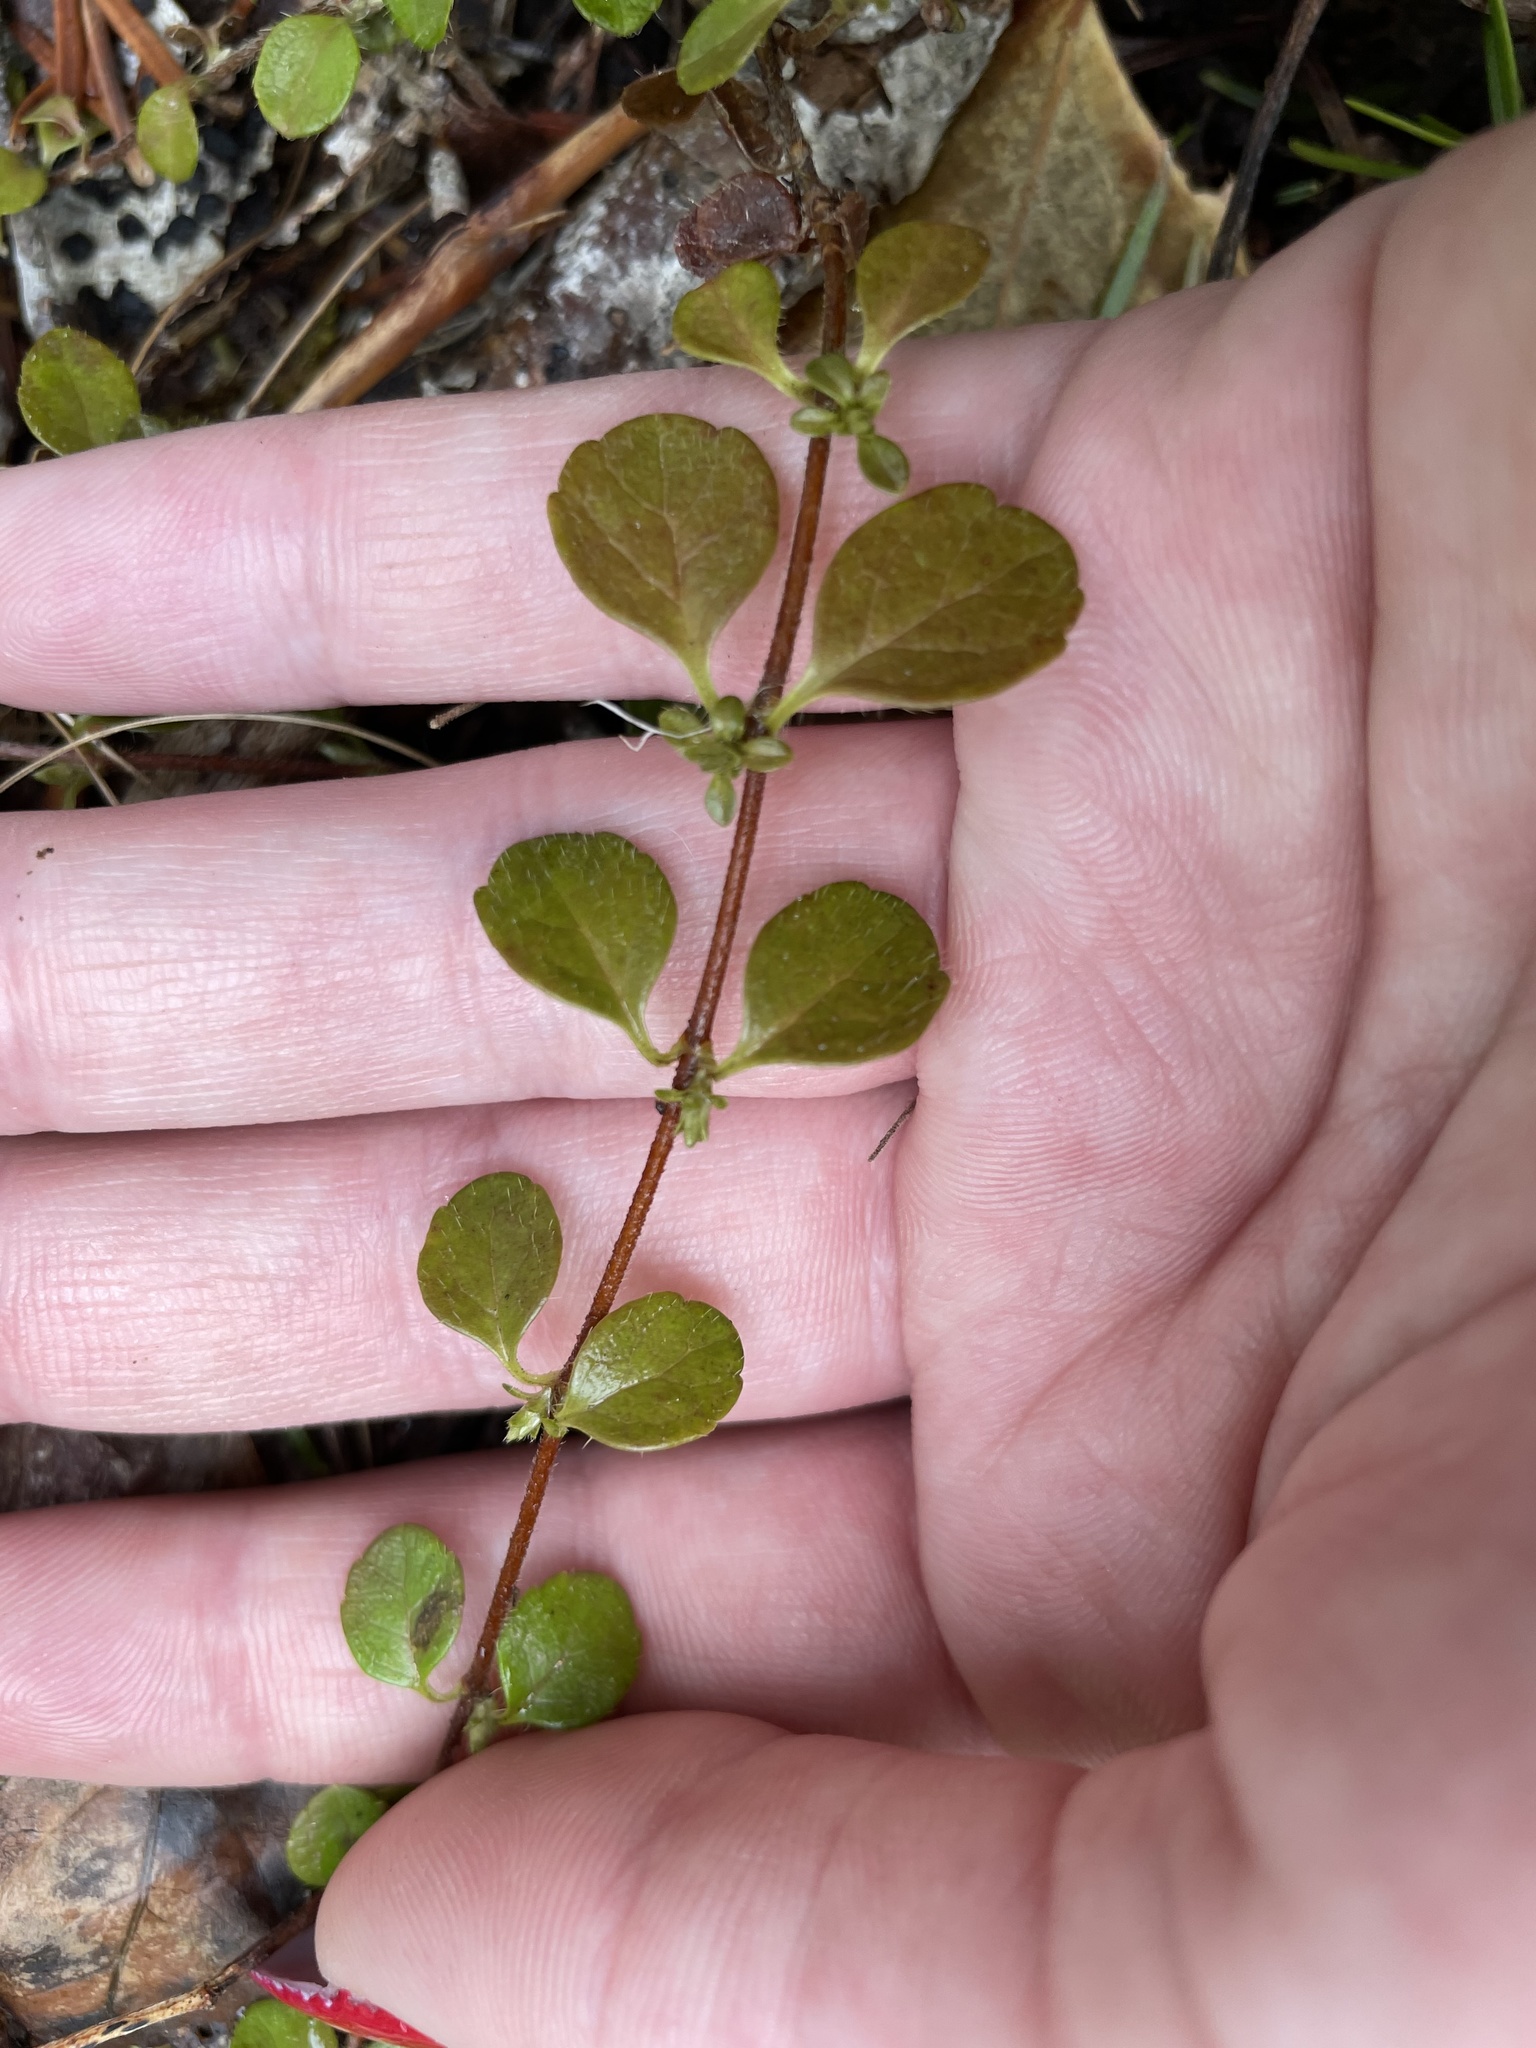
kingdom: Plantae
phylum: Tracheophyta
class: Magnoliopsida
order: Dipsacales
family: Caprifoliaceae
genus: Linnaea
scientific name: Linnaea borealis
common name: Twinflower
